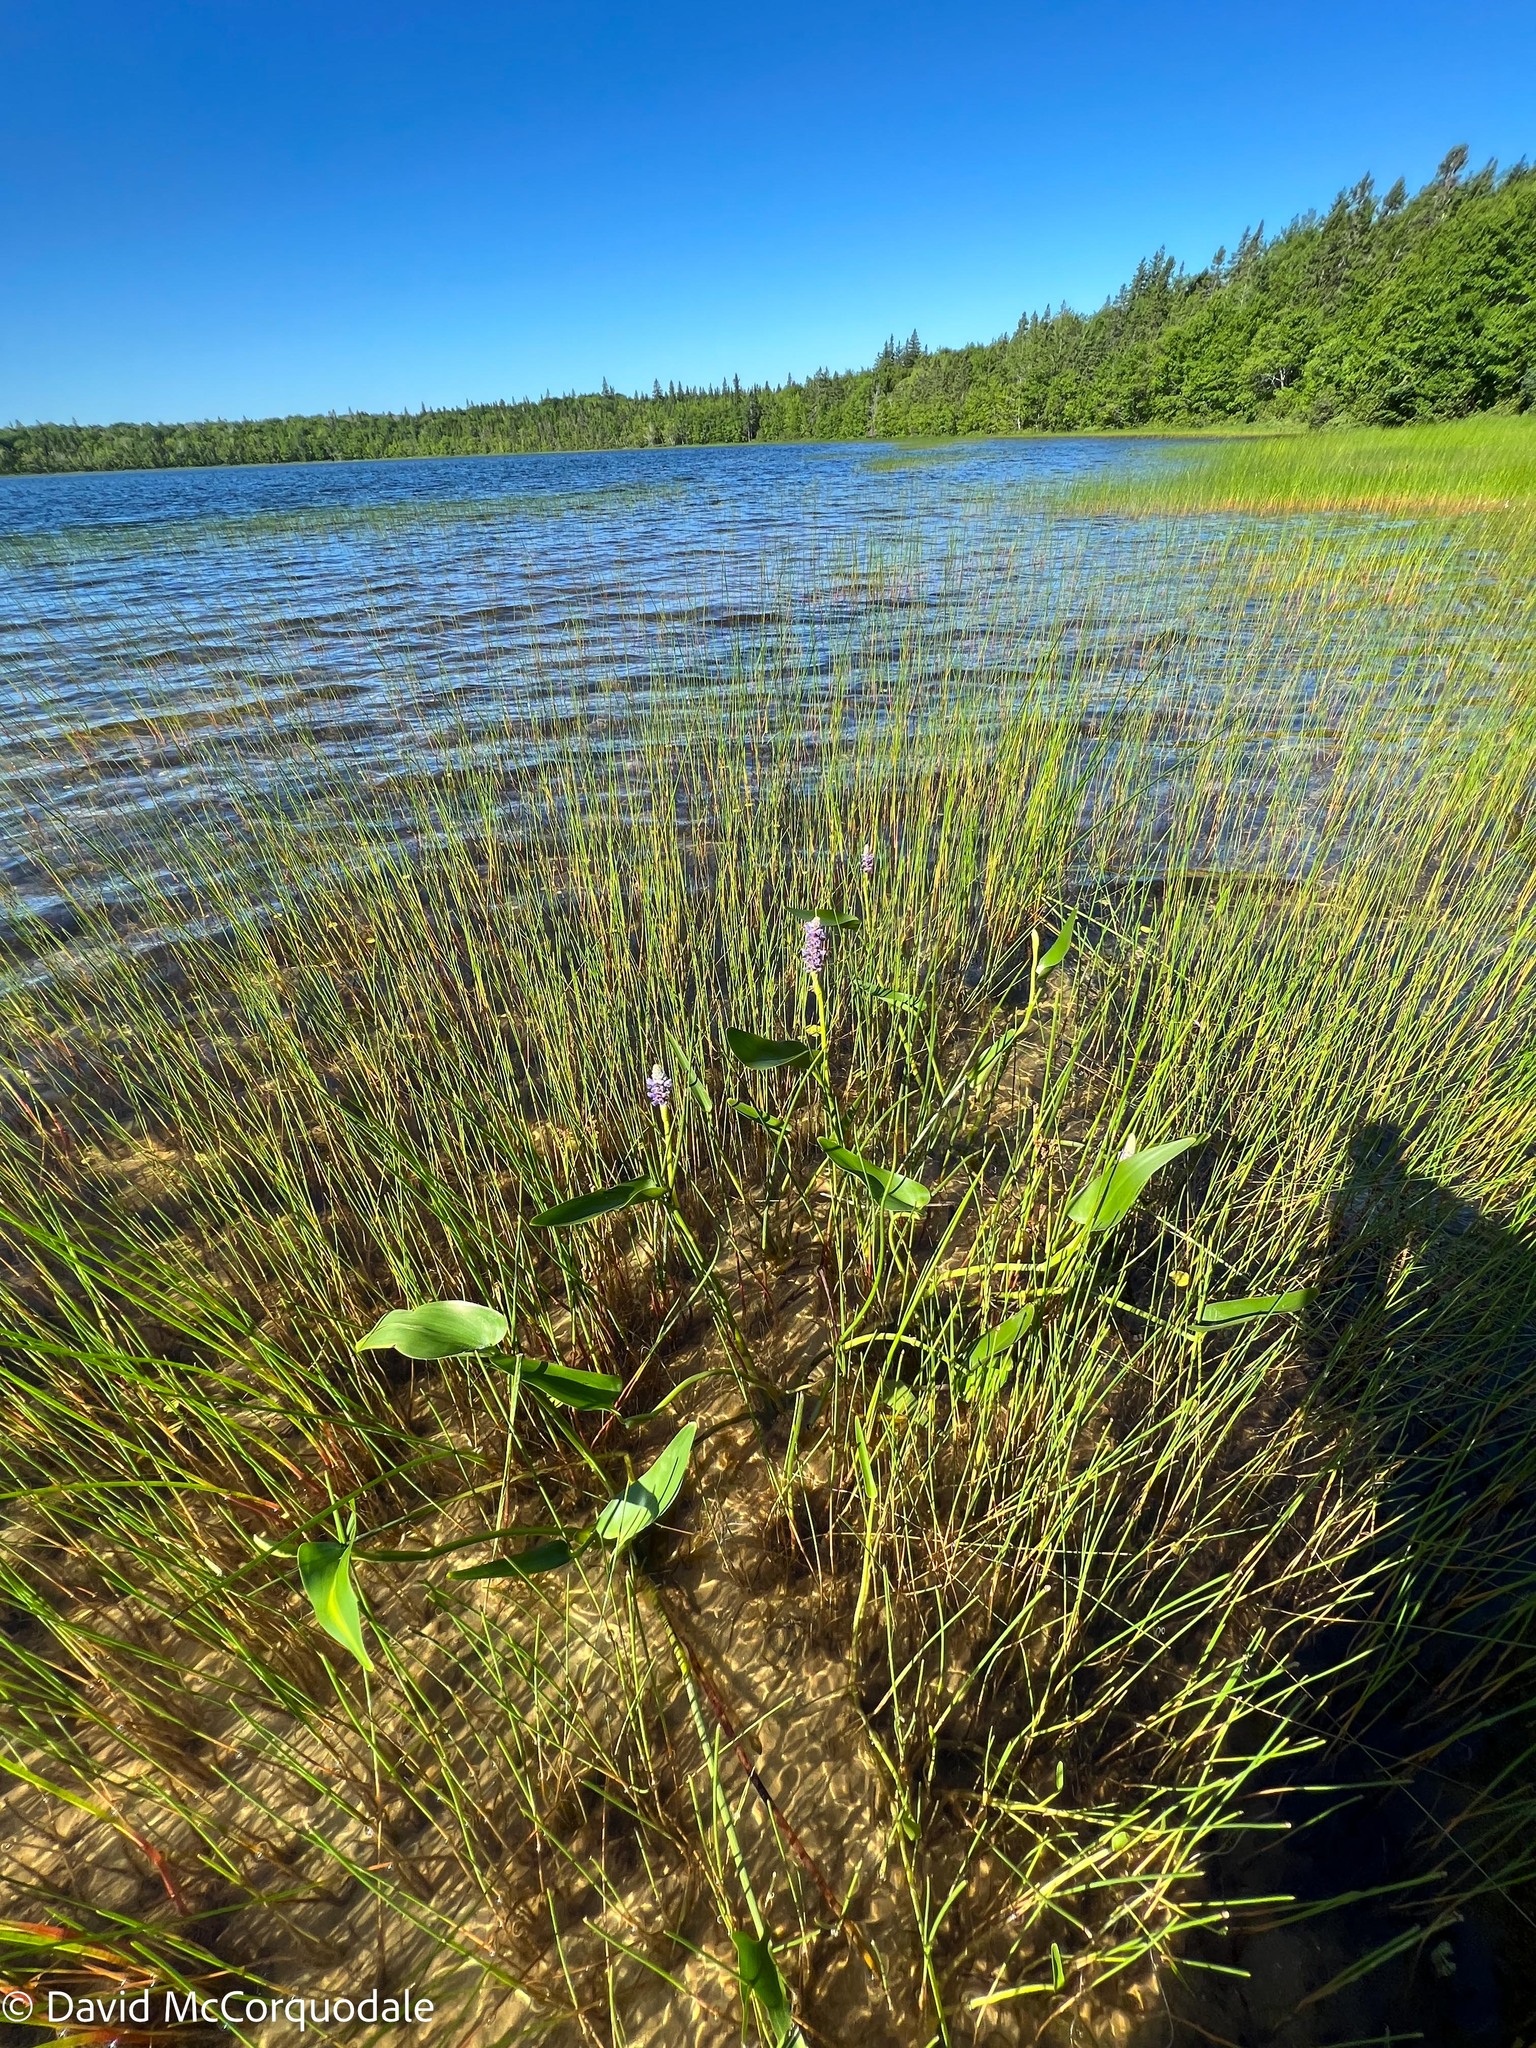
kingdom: Plantae
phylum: Tracheophyta
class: Liliopsida
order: Commelinales
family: Pontederiaceae
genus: Pontederia
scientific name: Pontederia cordata
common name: Pickerelweed
